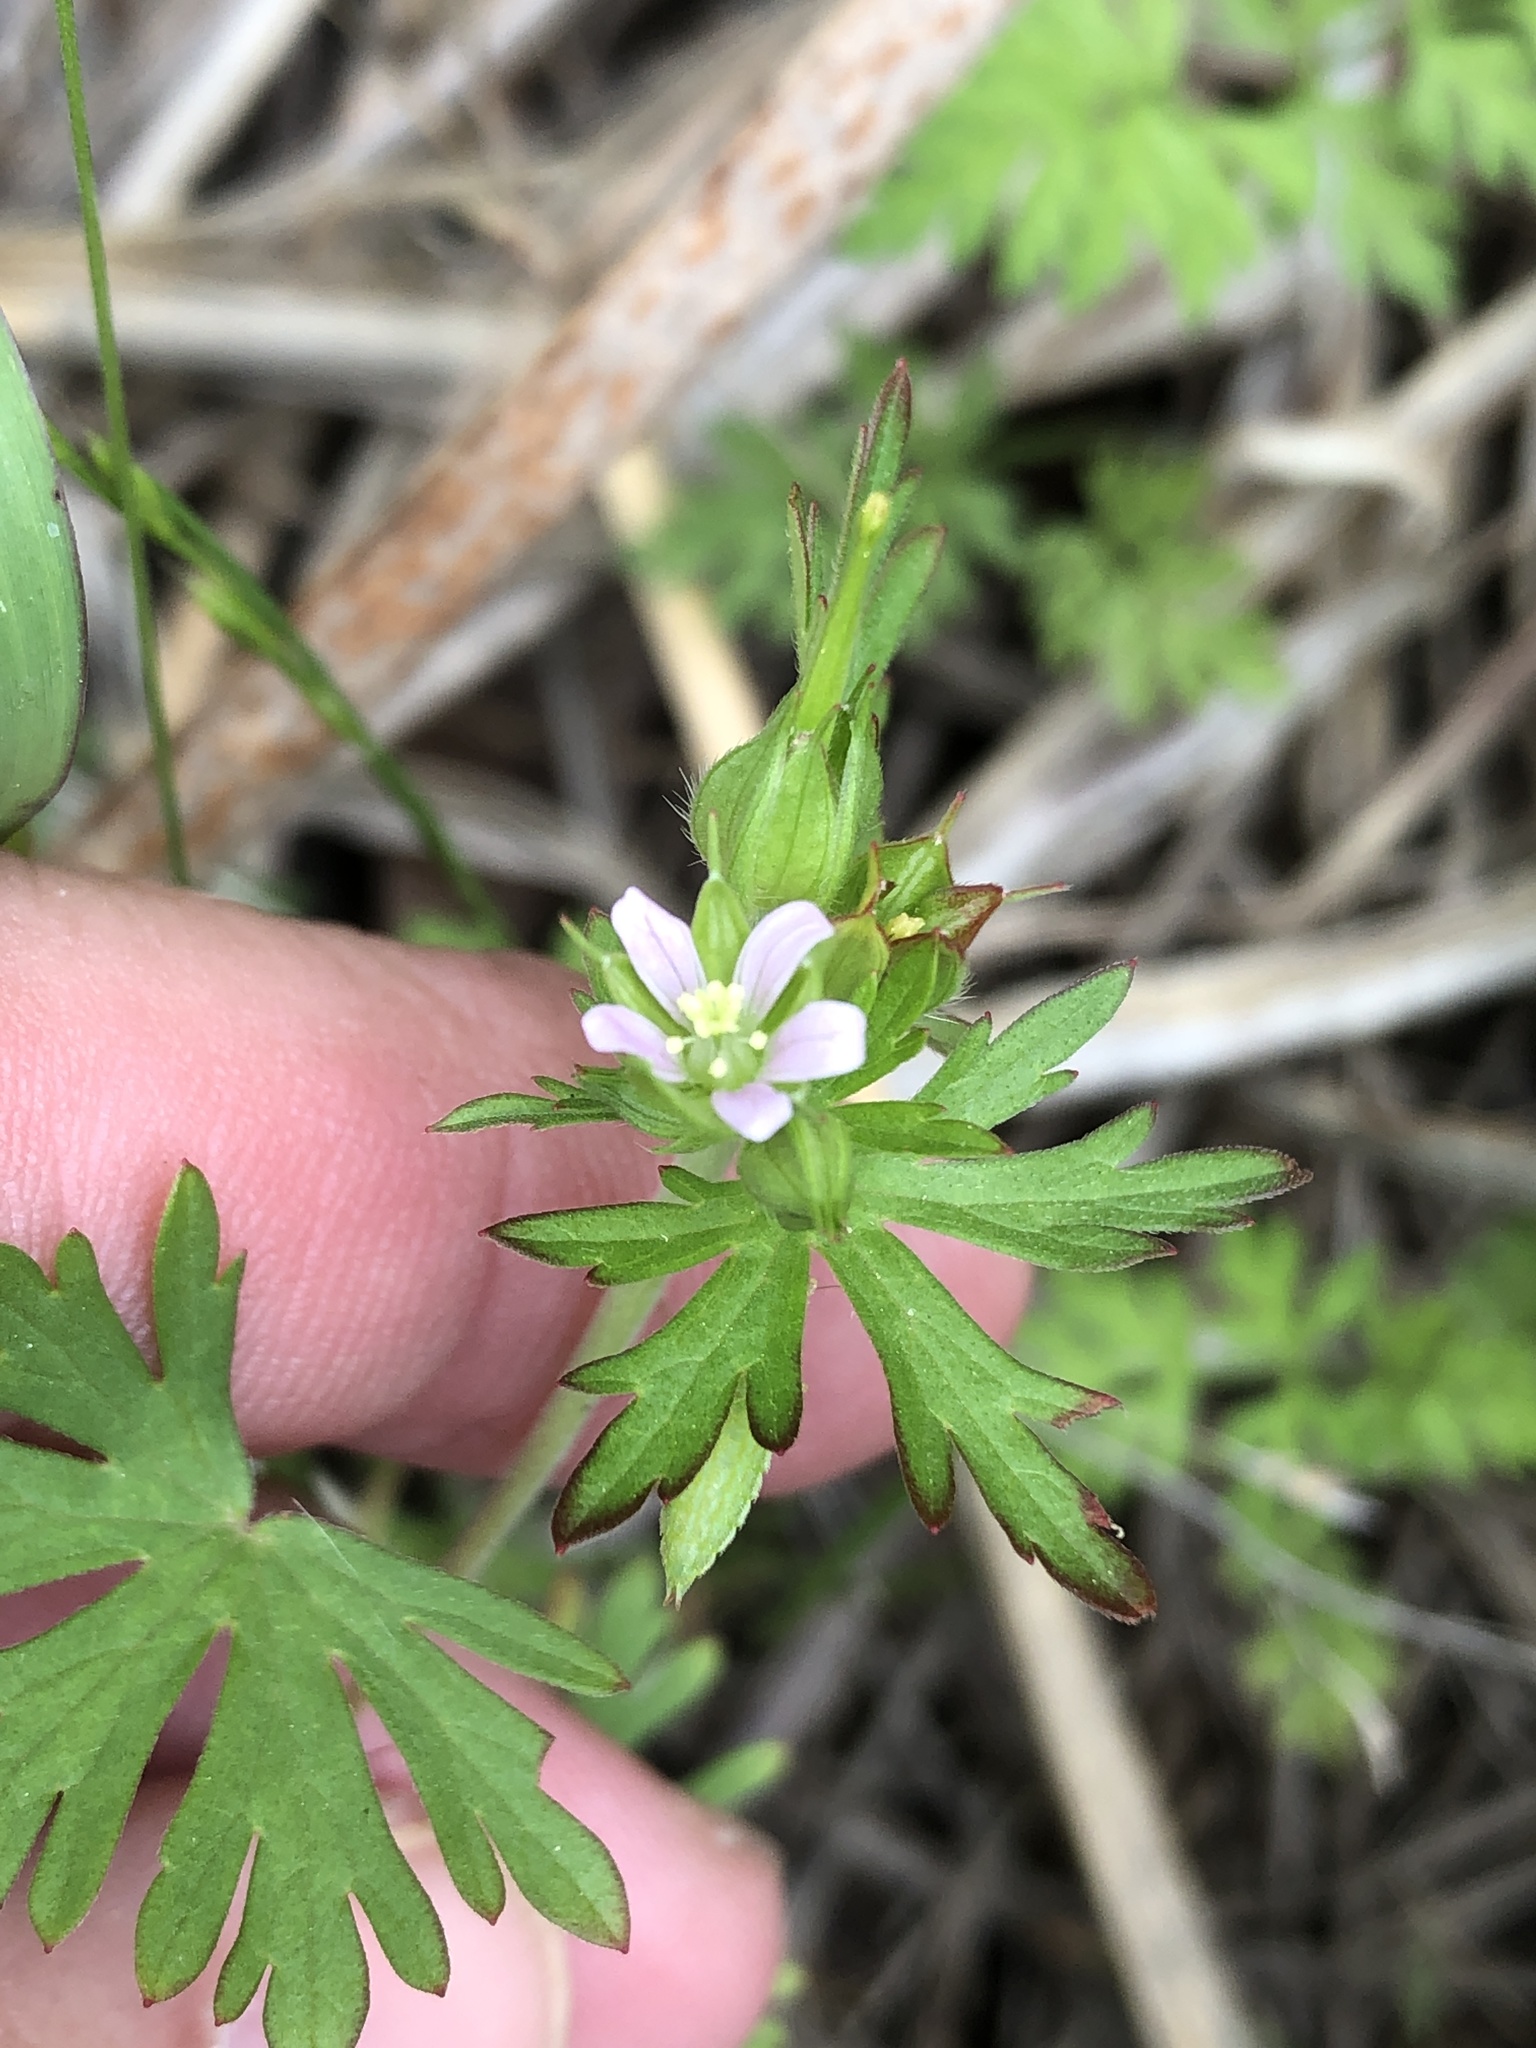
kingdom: Plantae
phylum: Tracheophyta
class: Magnoliopsida
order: Geraniales
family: Geraniaceae
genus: Geranium
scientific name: Geranium carolinianum
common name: Carolina crane's-bill
